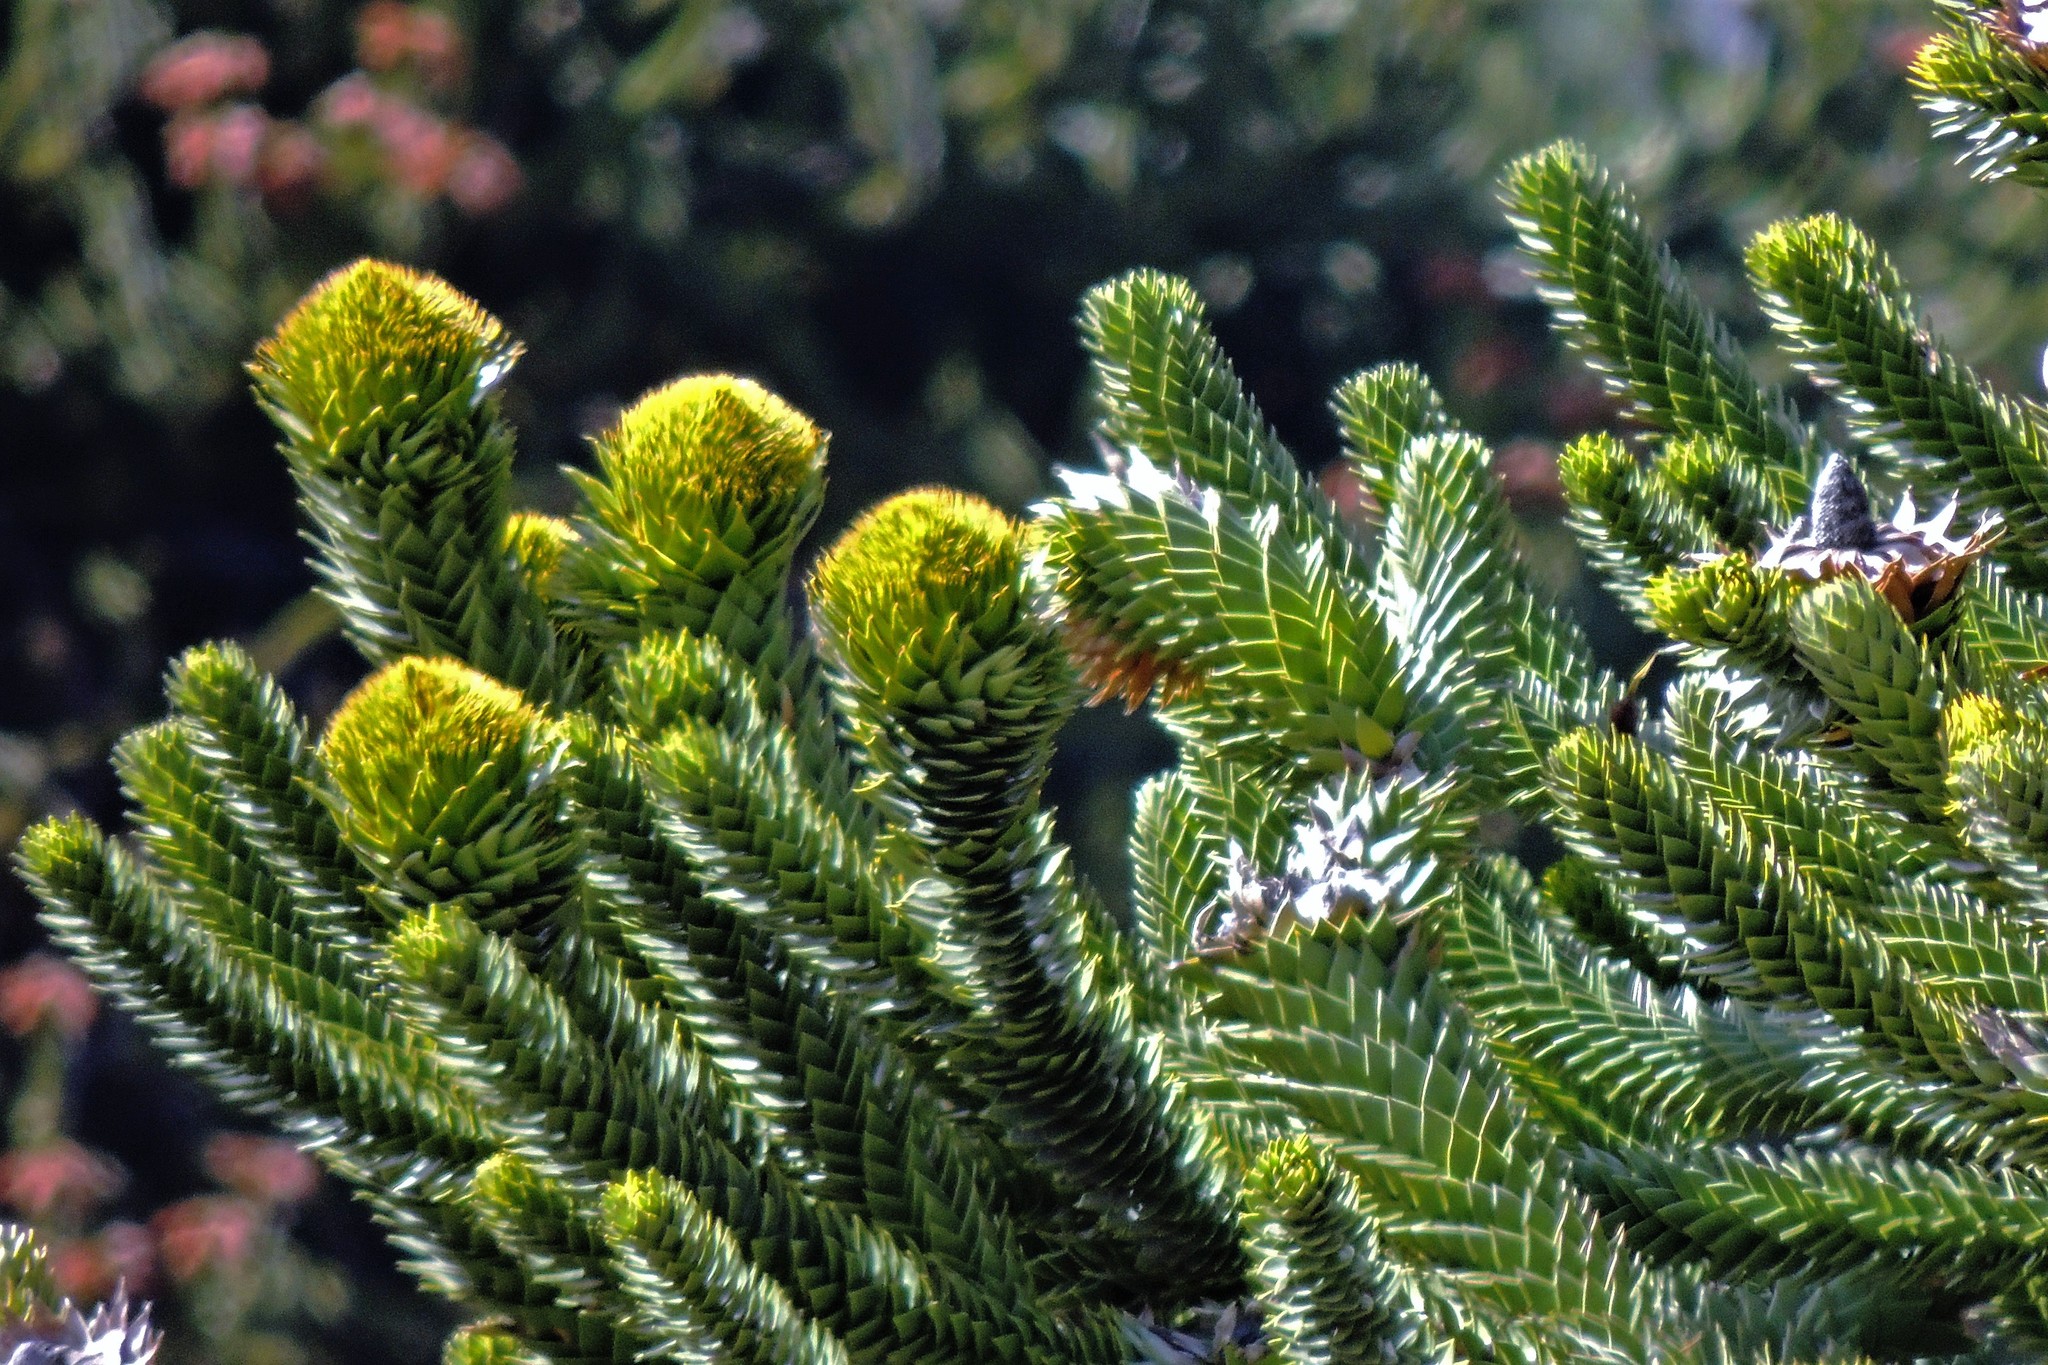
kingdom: Plantae
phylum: Tracheophyta
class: Pinopsida
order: Pinales
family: Araucariaceae
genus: Araucaria
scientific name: Araucaria araucana
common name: Monkey-puzzle
